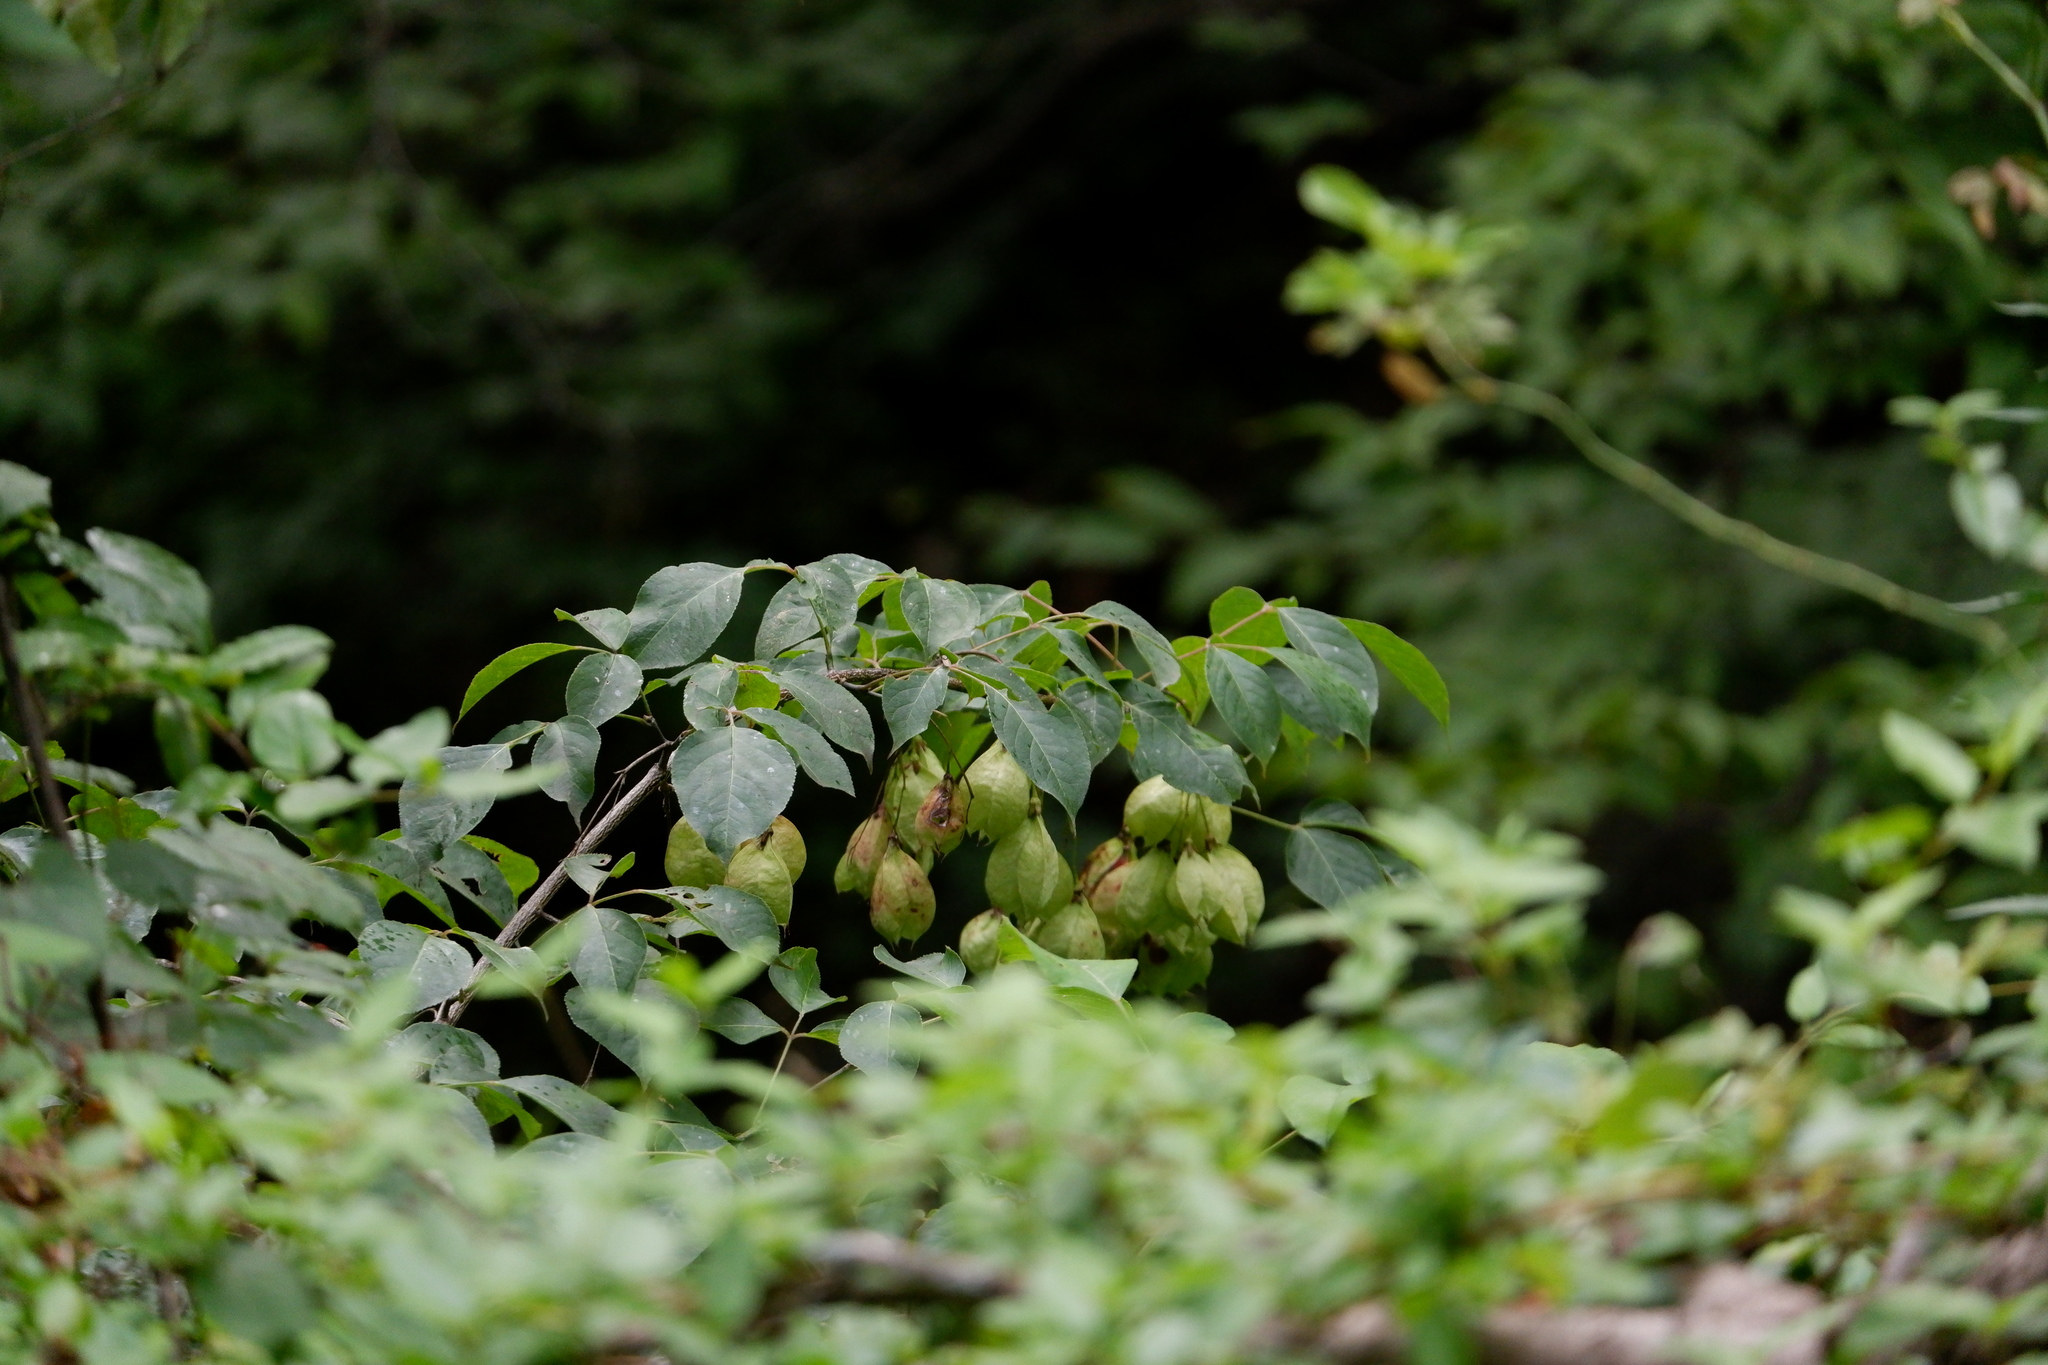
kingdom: Plantae
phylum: Tracheophyta
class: Magnoliopsida
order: Crossosomatales
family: Staphyleaceae
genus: Staphylea
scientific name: Staphylea trifolia
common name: American bladdernut
